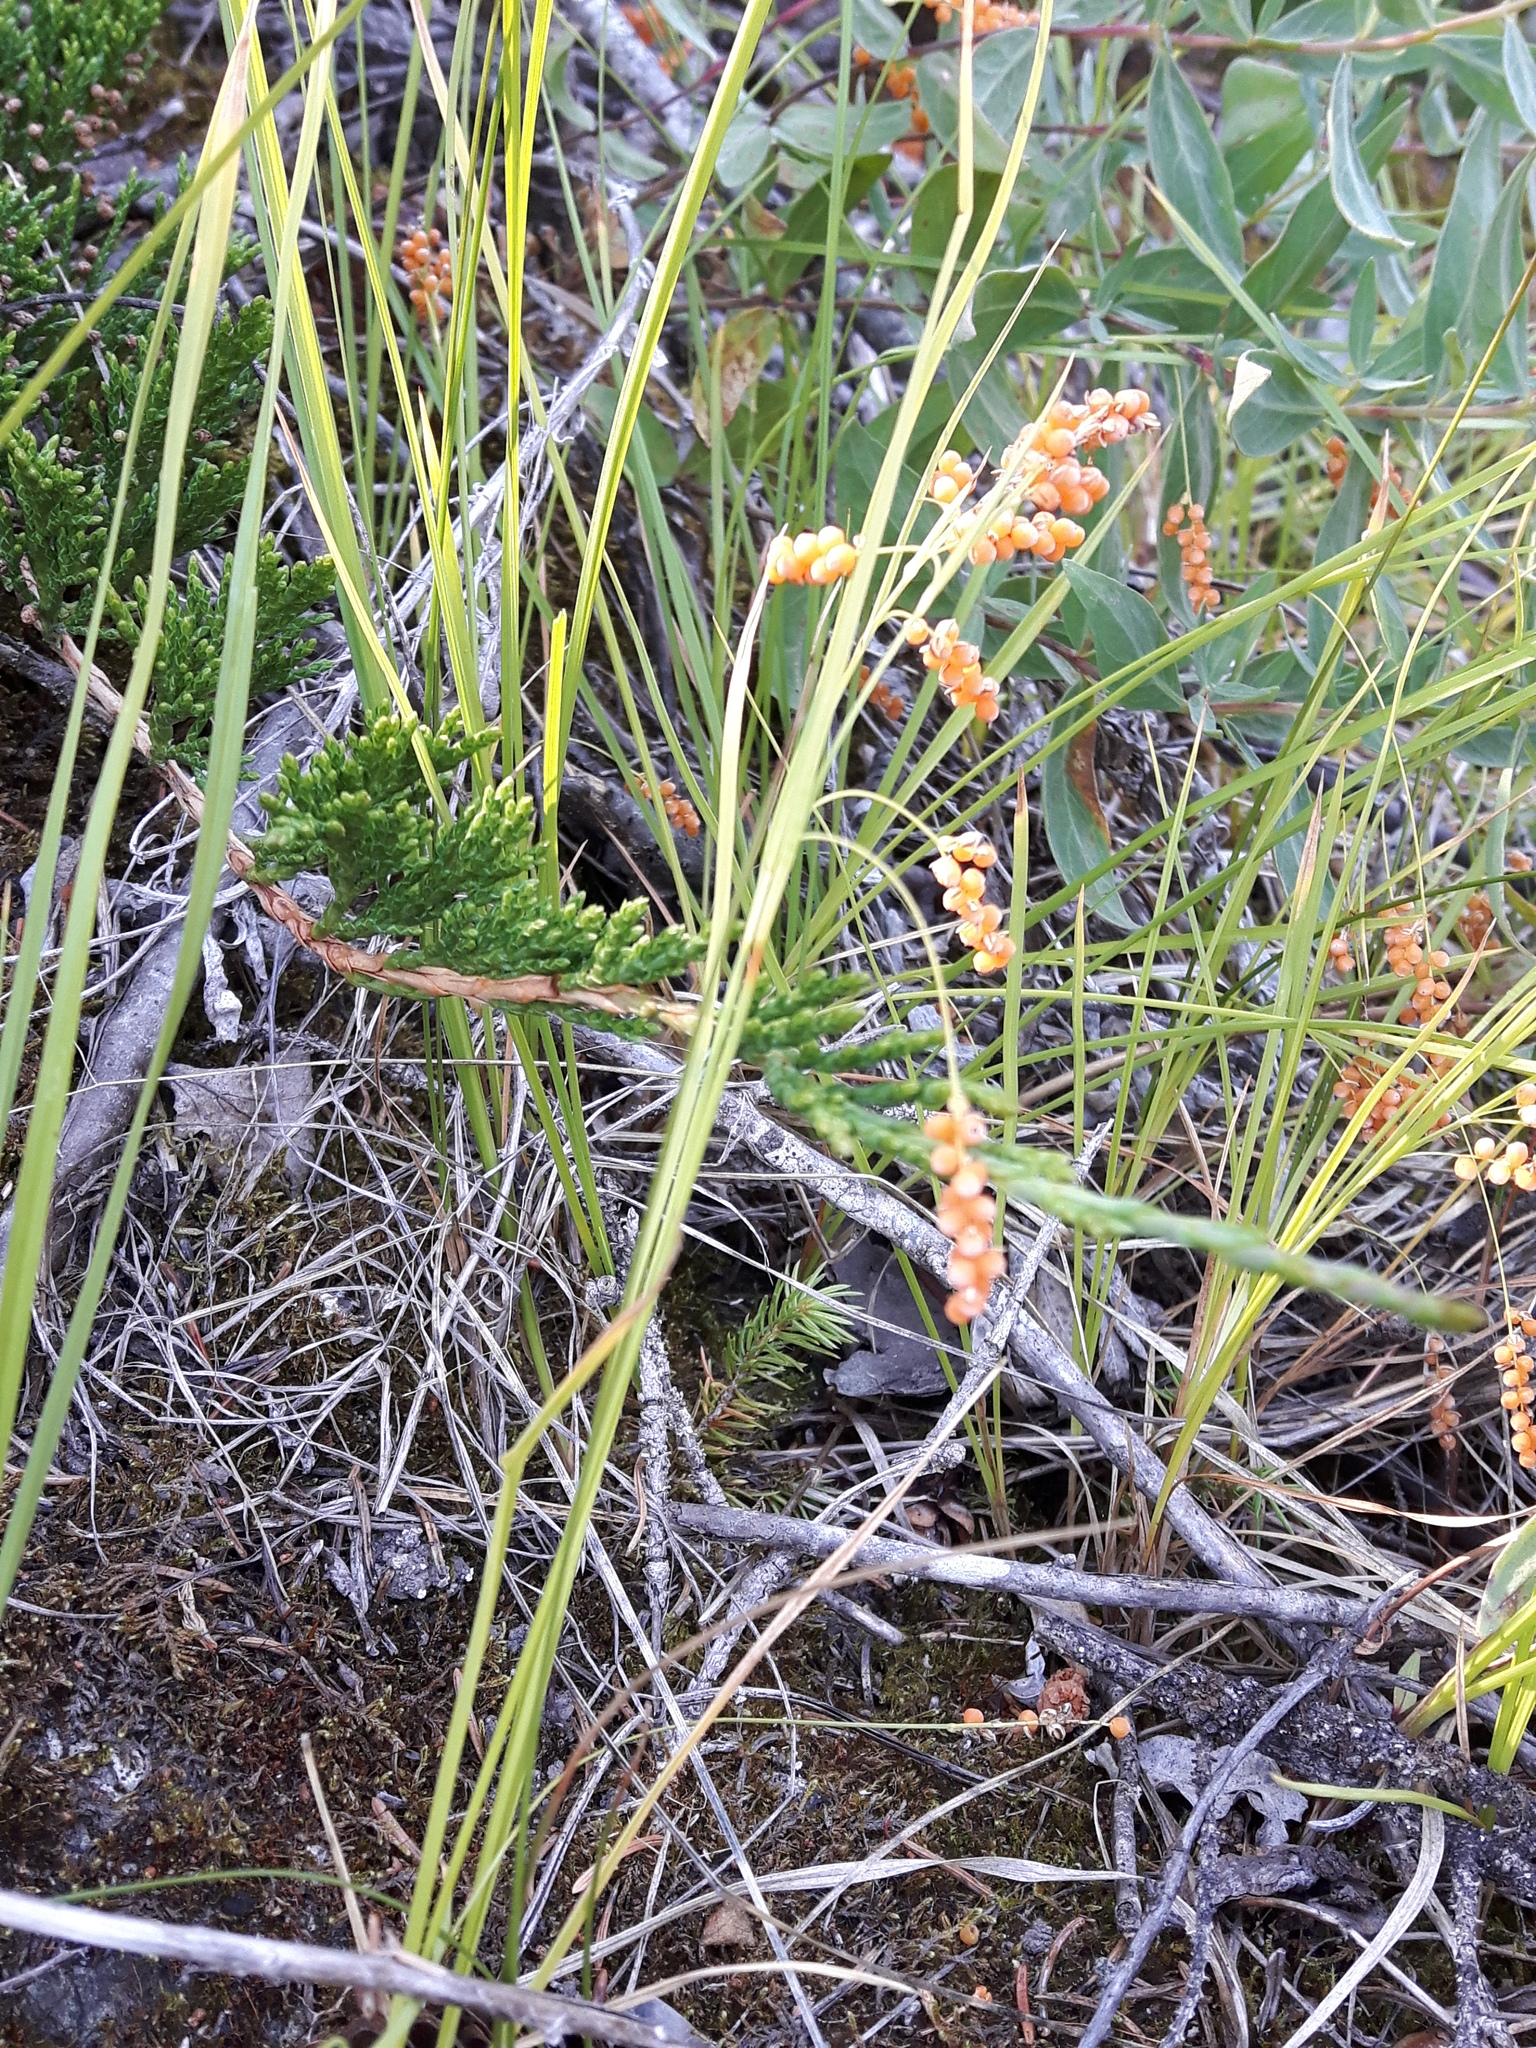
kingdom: Plantae
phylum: Tracheophyta
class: Liliopsida
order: Poales
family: Cyperaceae
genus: Carex
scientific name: Carex aurea
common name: Golden sedge
